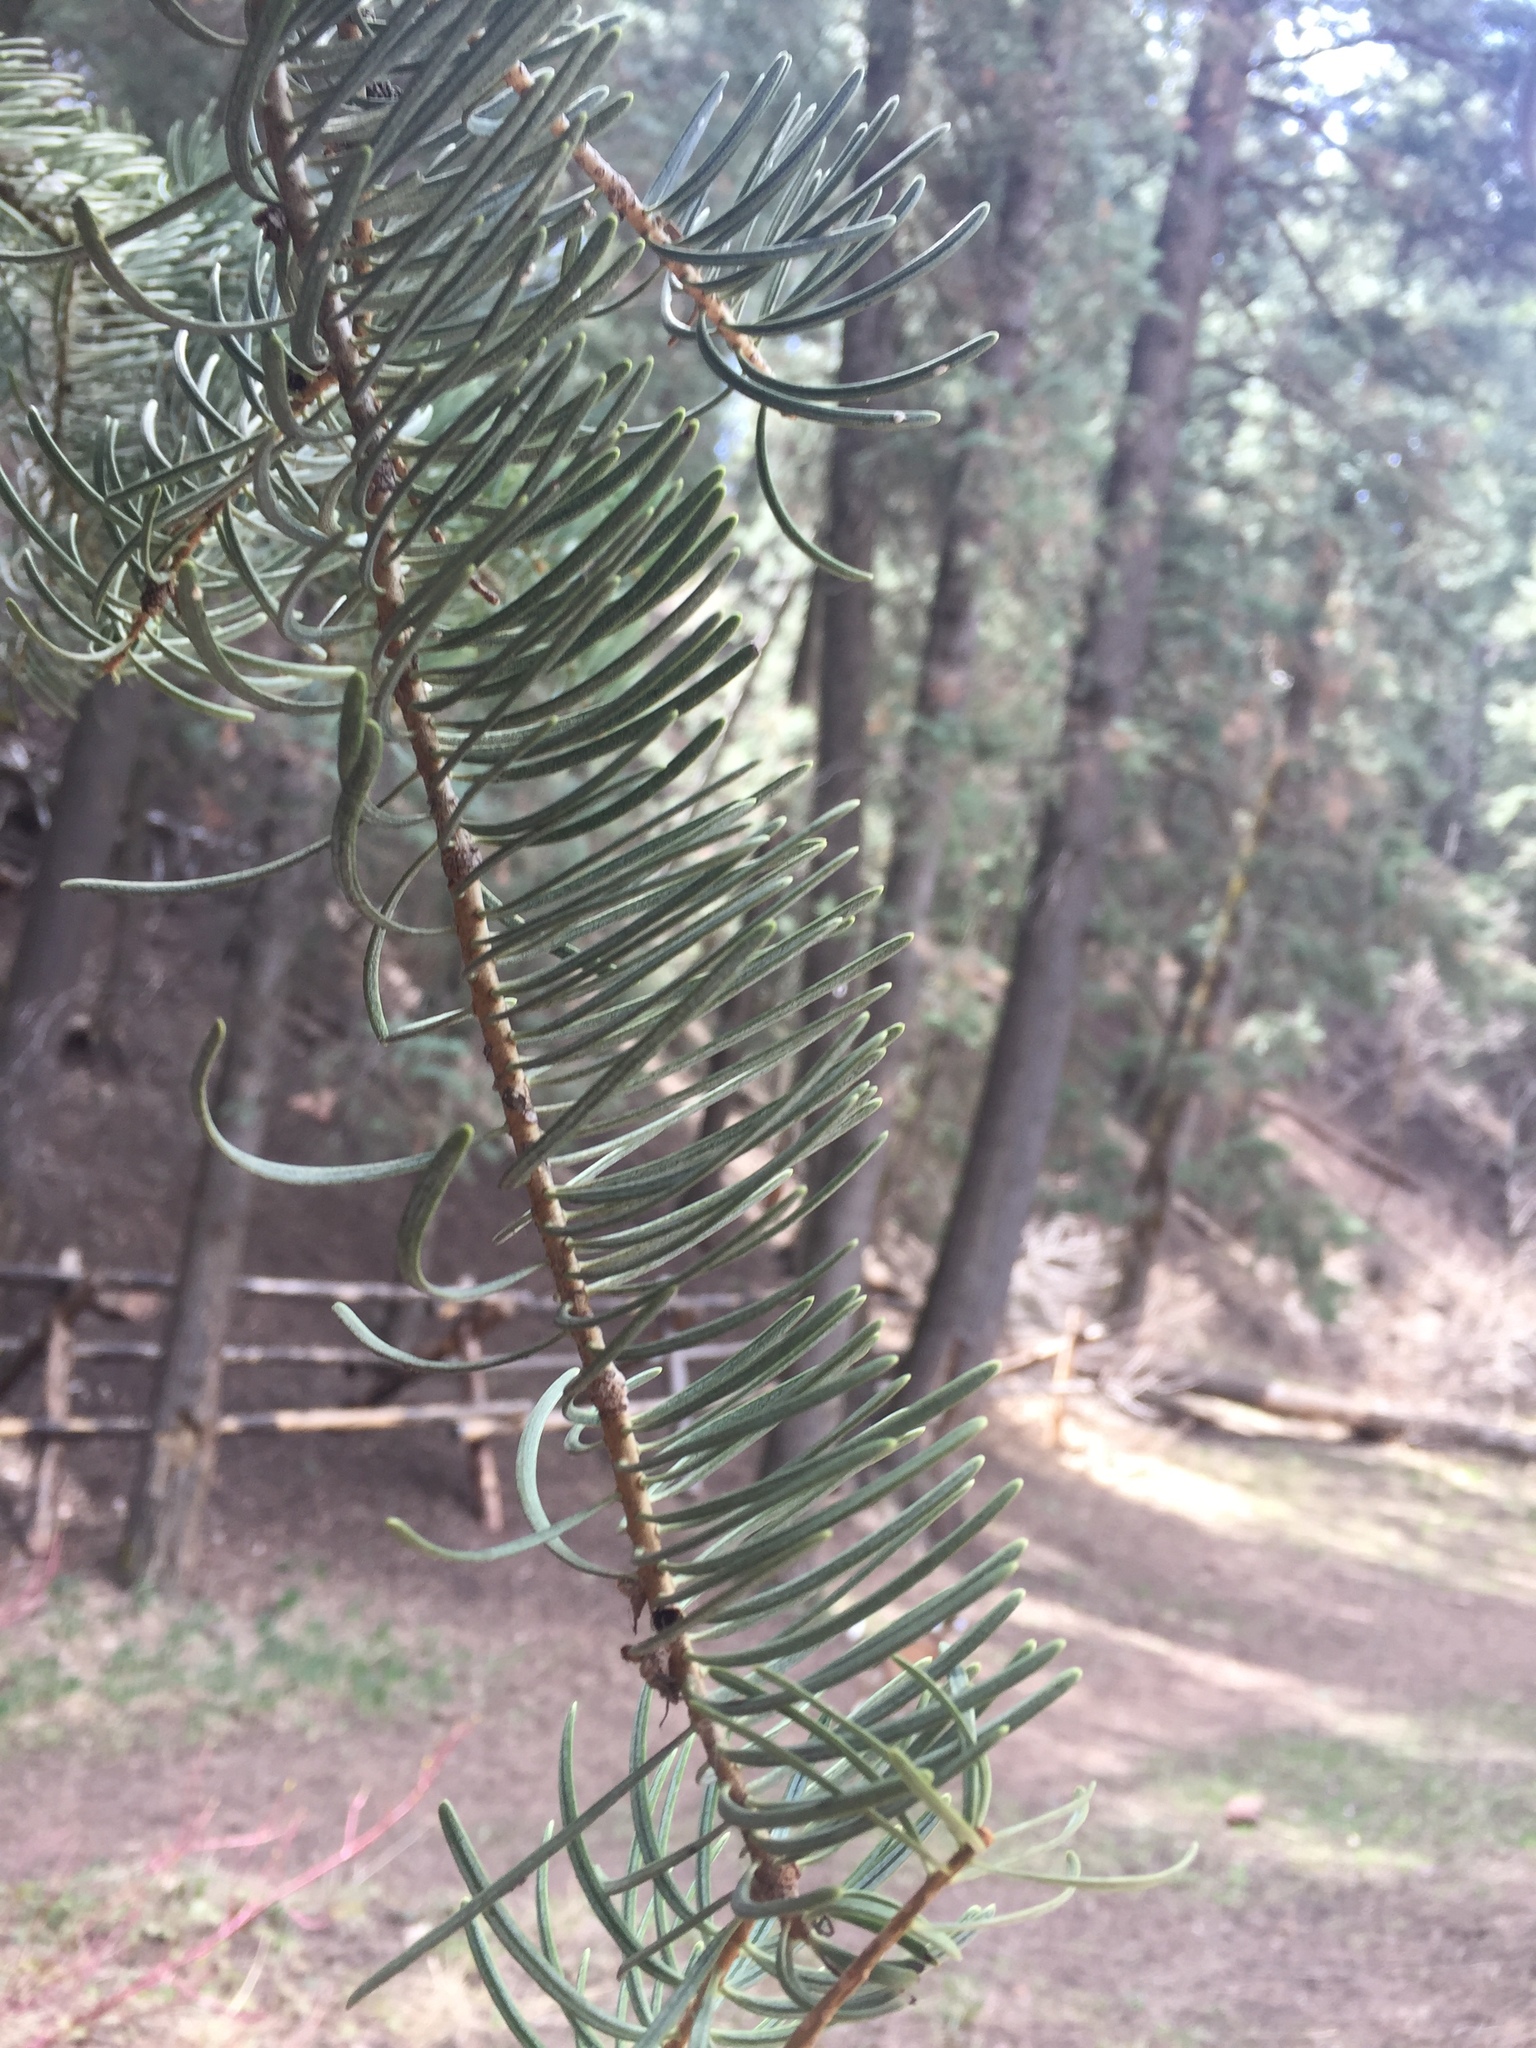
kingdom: Plantae
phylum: Tracheophyta
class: Pinopsida
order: Pinales
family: Pinaceae
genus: Abies
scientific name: Abies concolor
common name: Colorado fir
